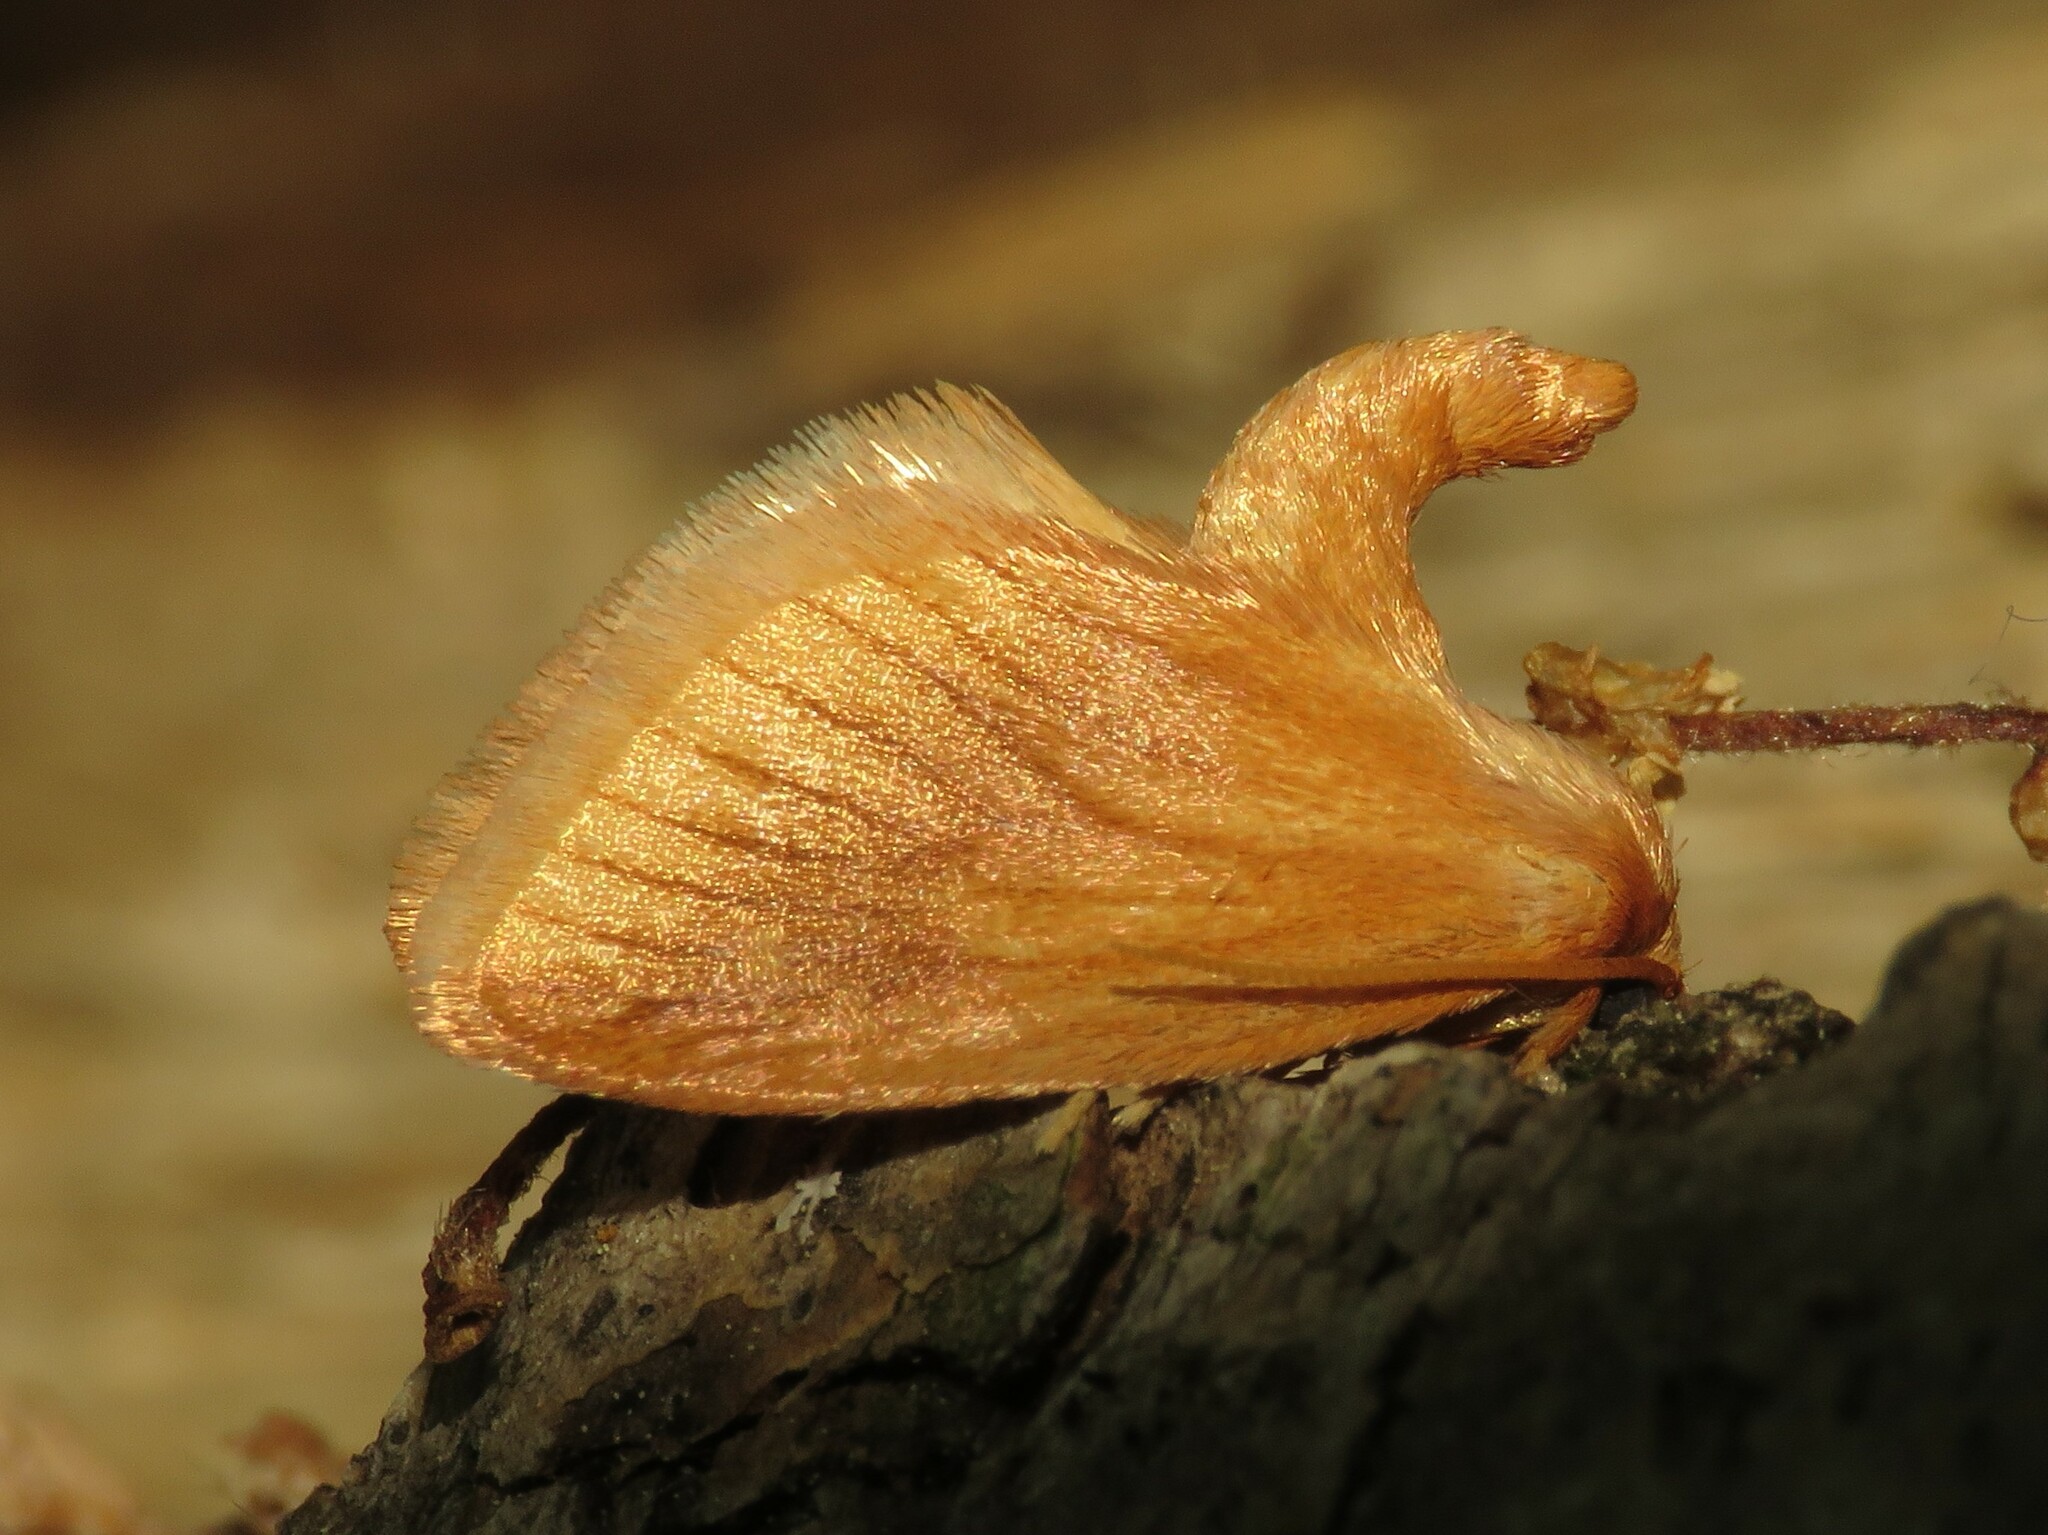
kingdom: Animalia
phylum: Arthropoda
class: Insecta
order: Lepidoptera
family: Limacodidae
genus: Tortricidia
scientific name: Tortricidia testacea
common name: Early button slug moth
